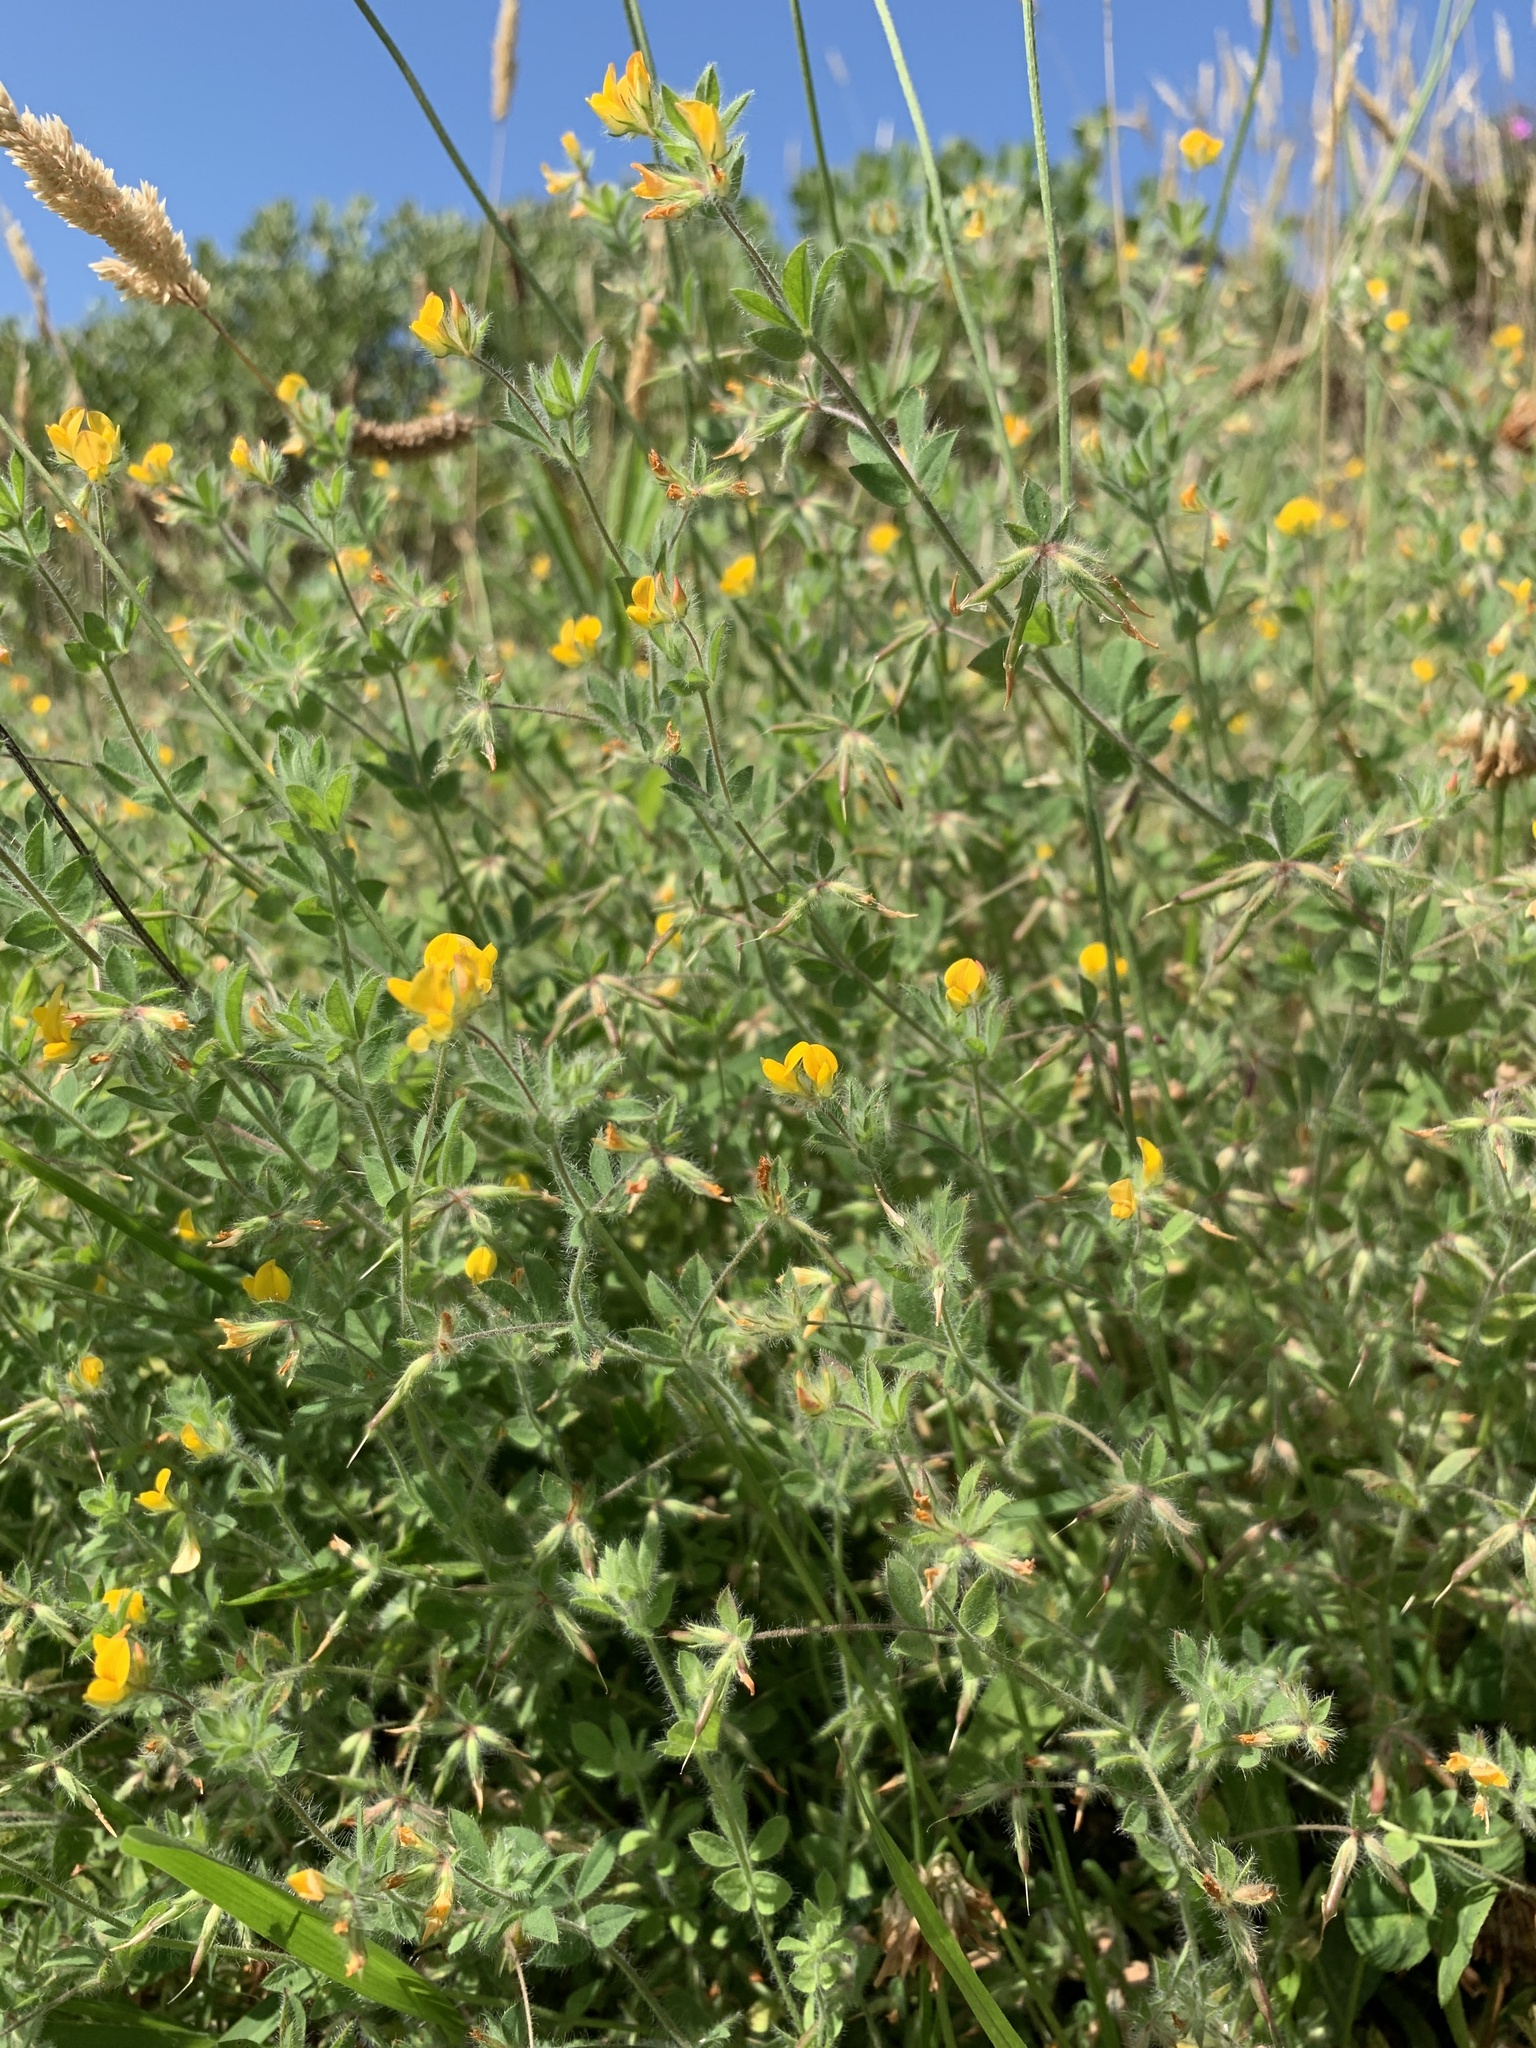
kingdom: Plantae
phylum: Tracheophyta
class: Magnoliopsida
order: Fabales
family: Fabaceae
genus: Lotus
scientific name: Lotus subbiflorus
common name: Hairy bird's-foot trefoil
